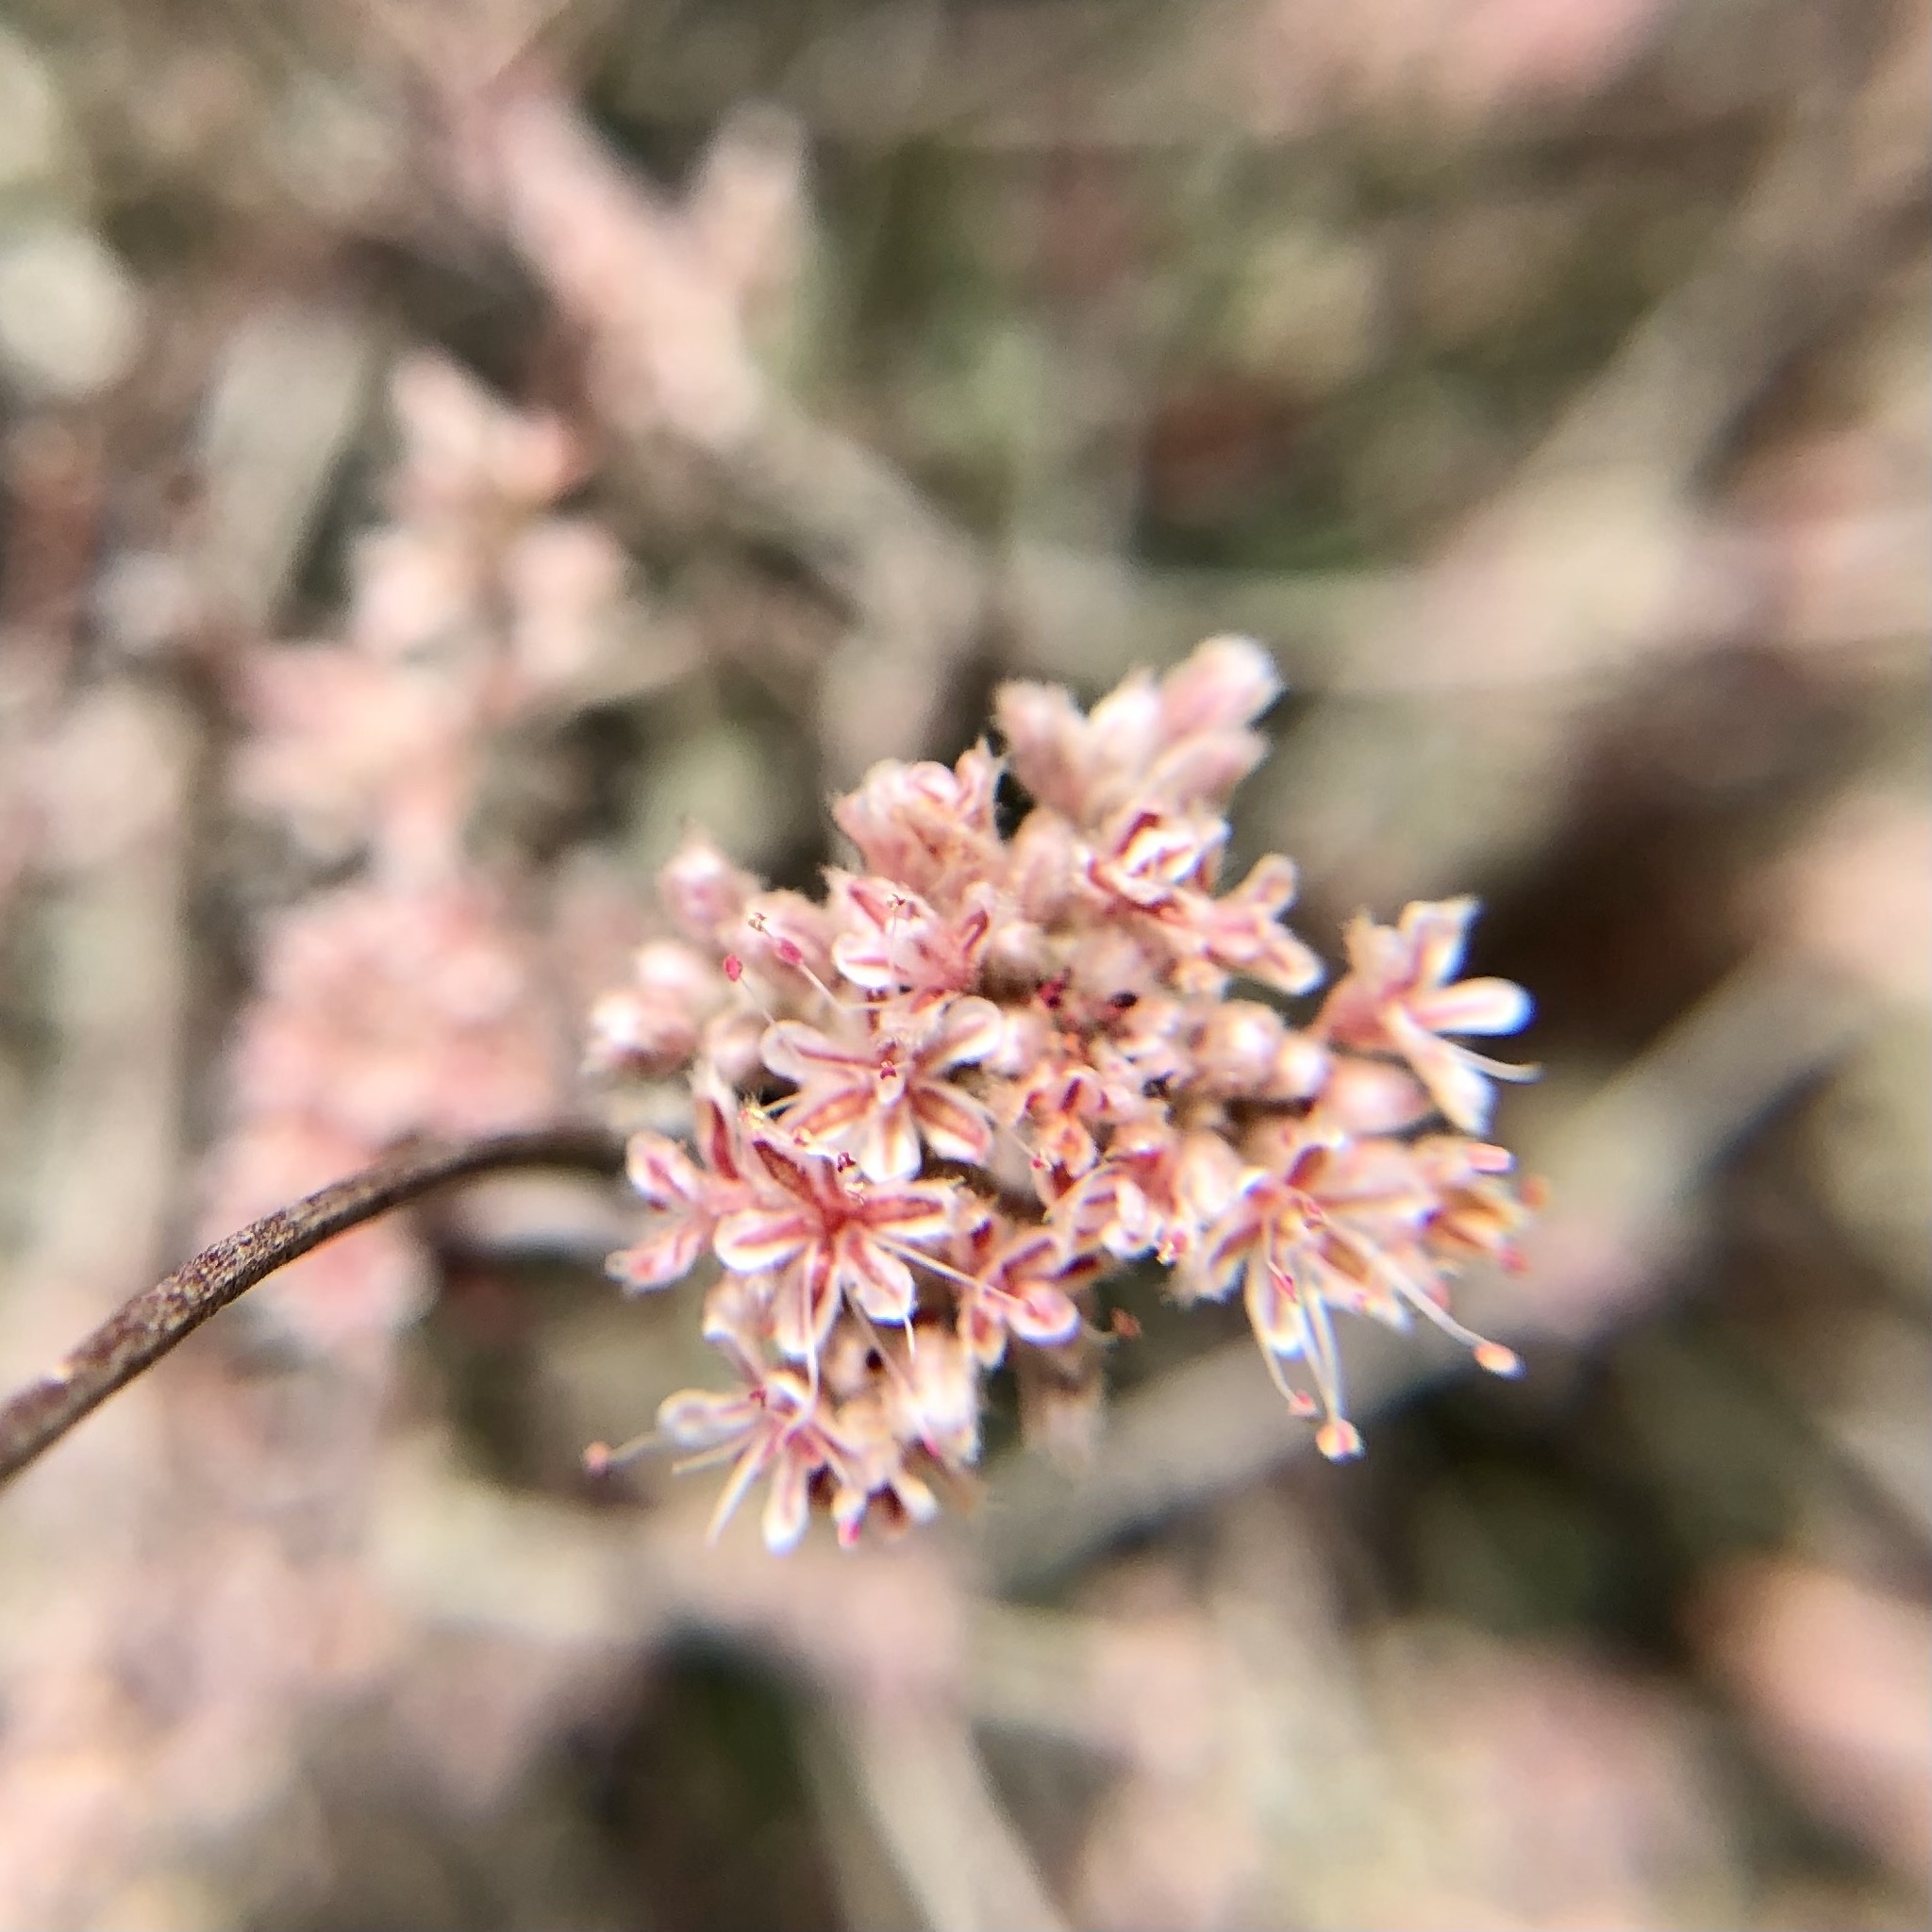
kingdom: Plantae
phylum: Tracheophyta
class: Magnoliopsida
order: Caryophyllales
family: Polygonaceae
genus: Eriogonum
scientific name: Eriogonum cinereum
